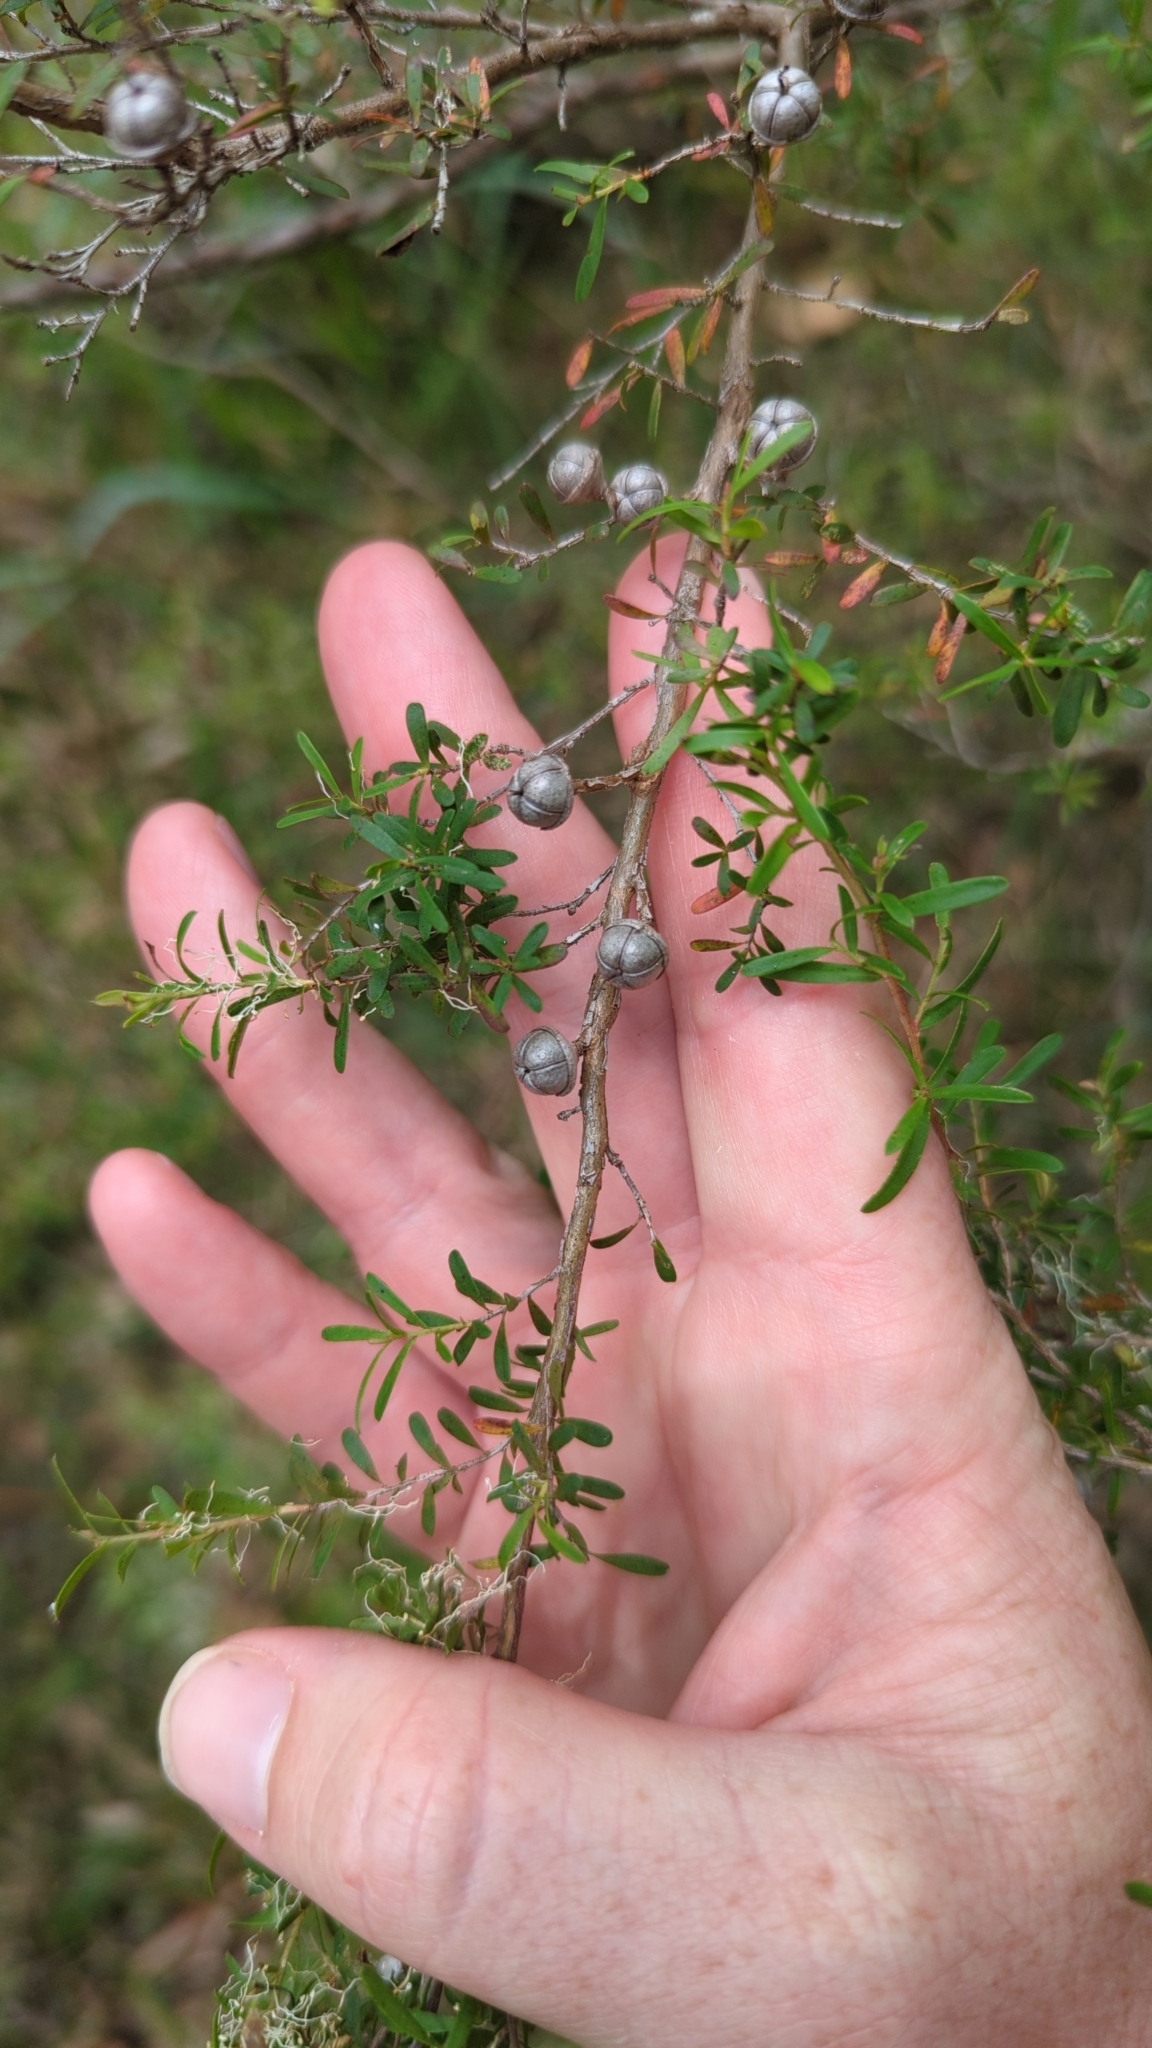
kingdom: Plantae
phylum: Tracheophyta
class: Magnoliopsida
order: Myrtales
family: Myrtaceae
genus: Leptospermum
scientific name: Leptospermum polygalifolium
